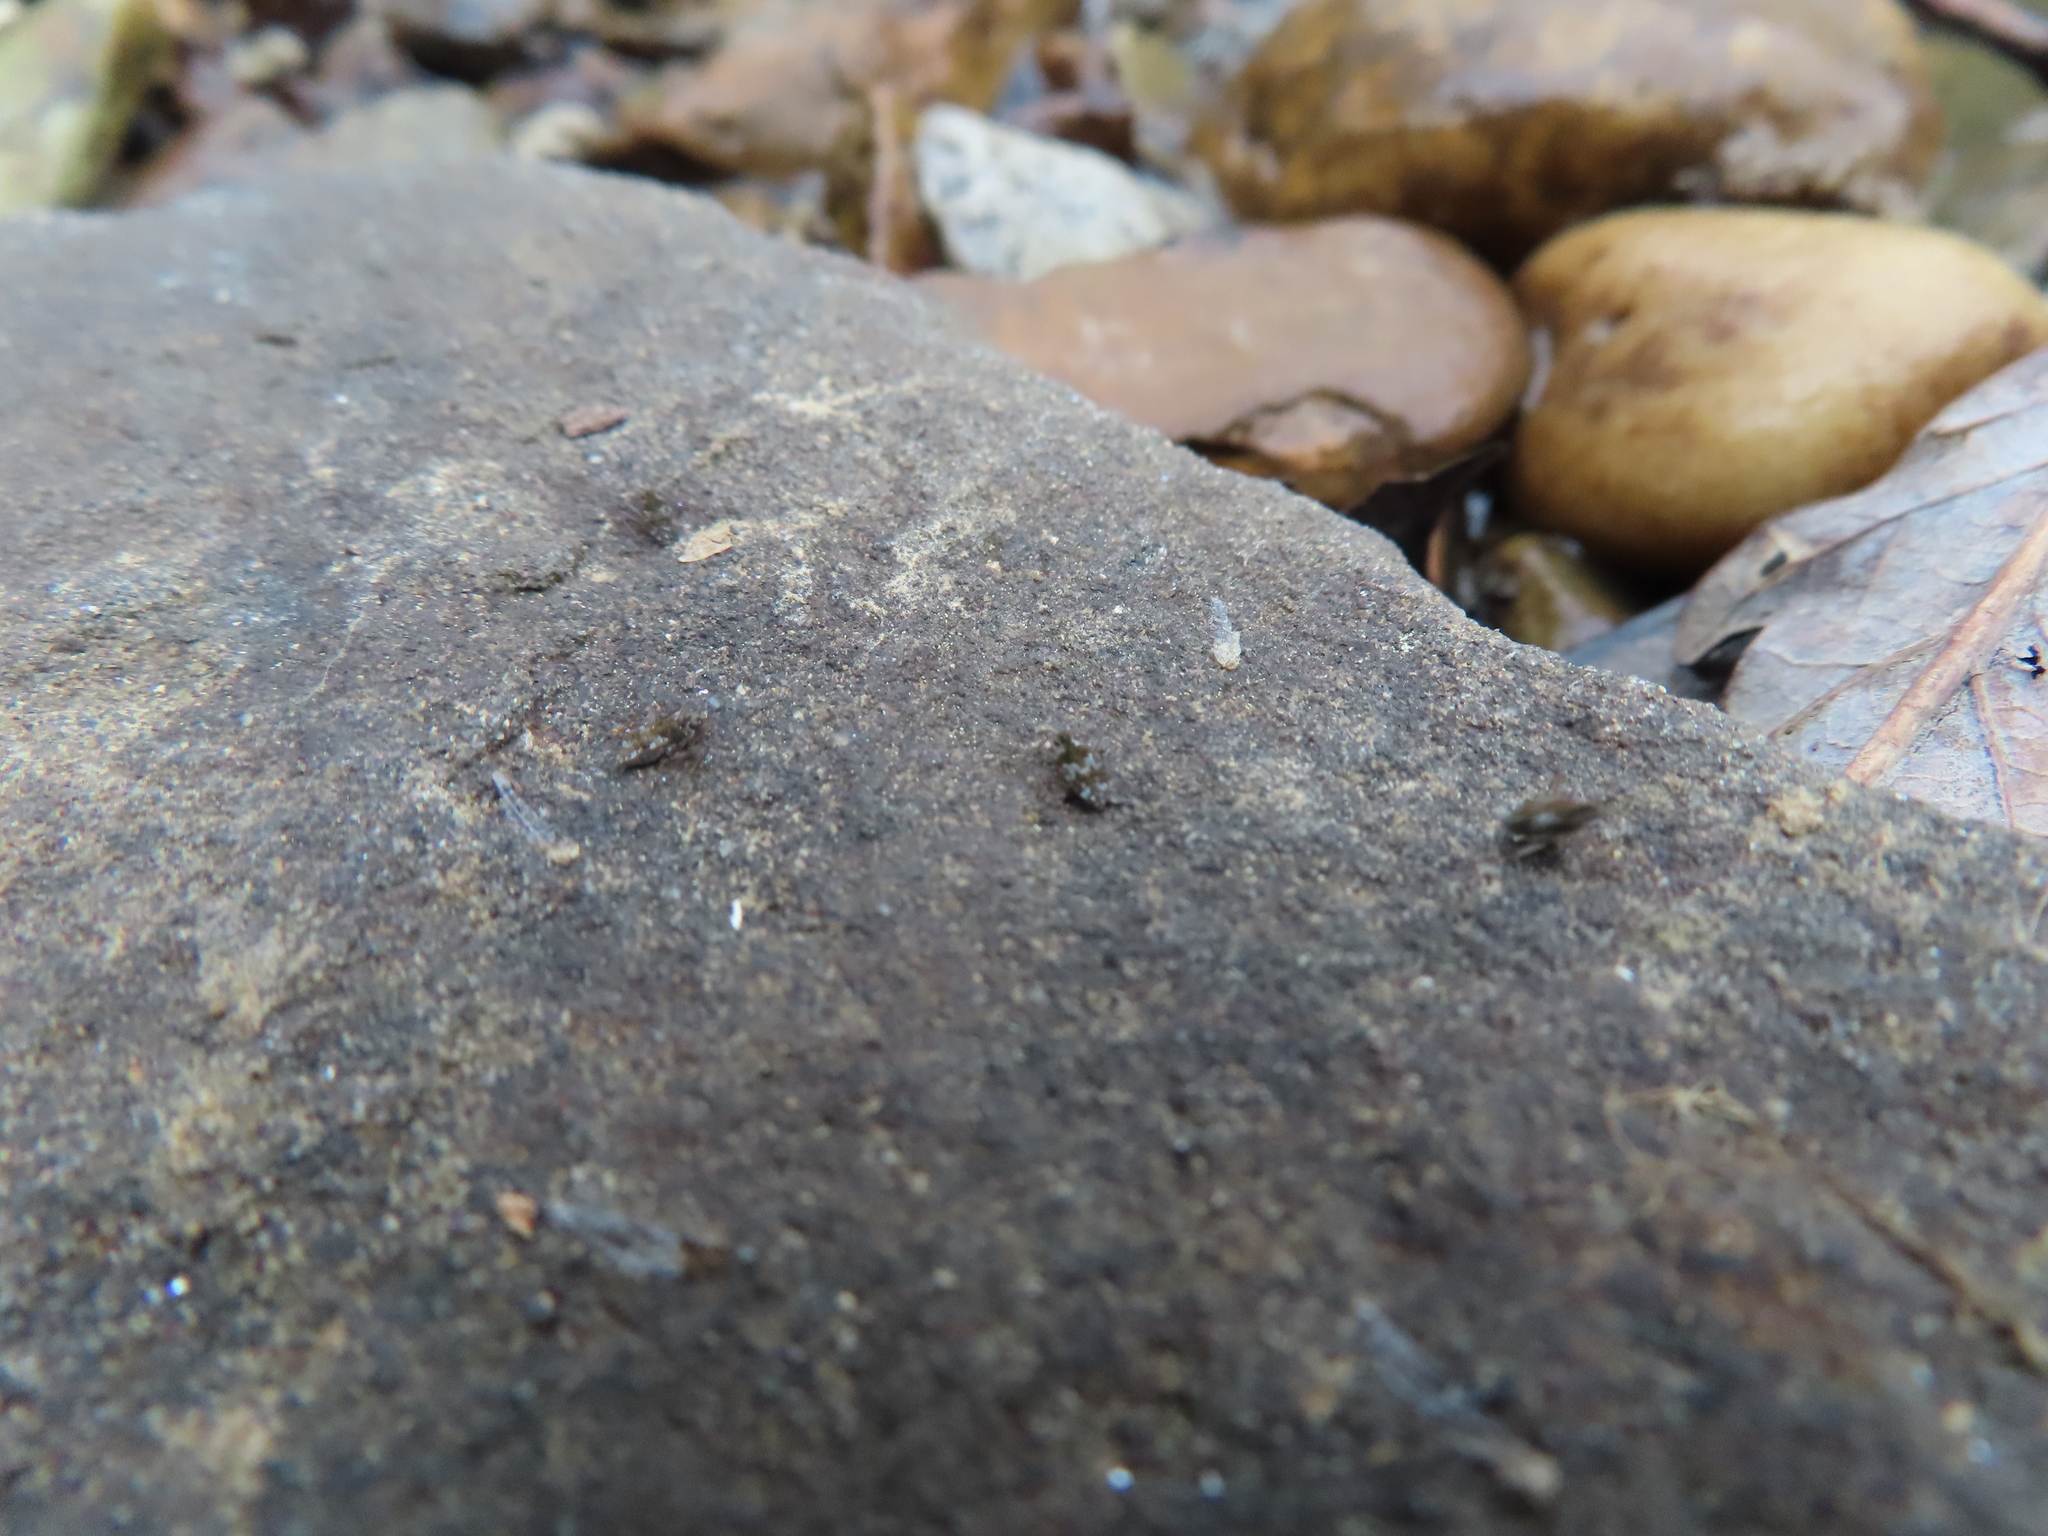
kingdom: Animalia
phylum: Arthropoda
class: Insecta
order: Hemiptera
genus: Kirkaldya
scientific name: Kirkaldya
